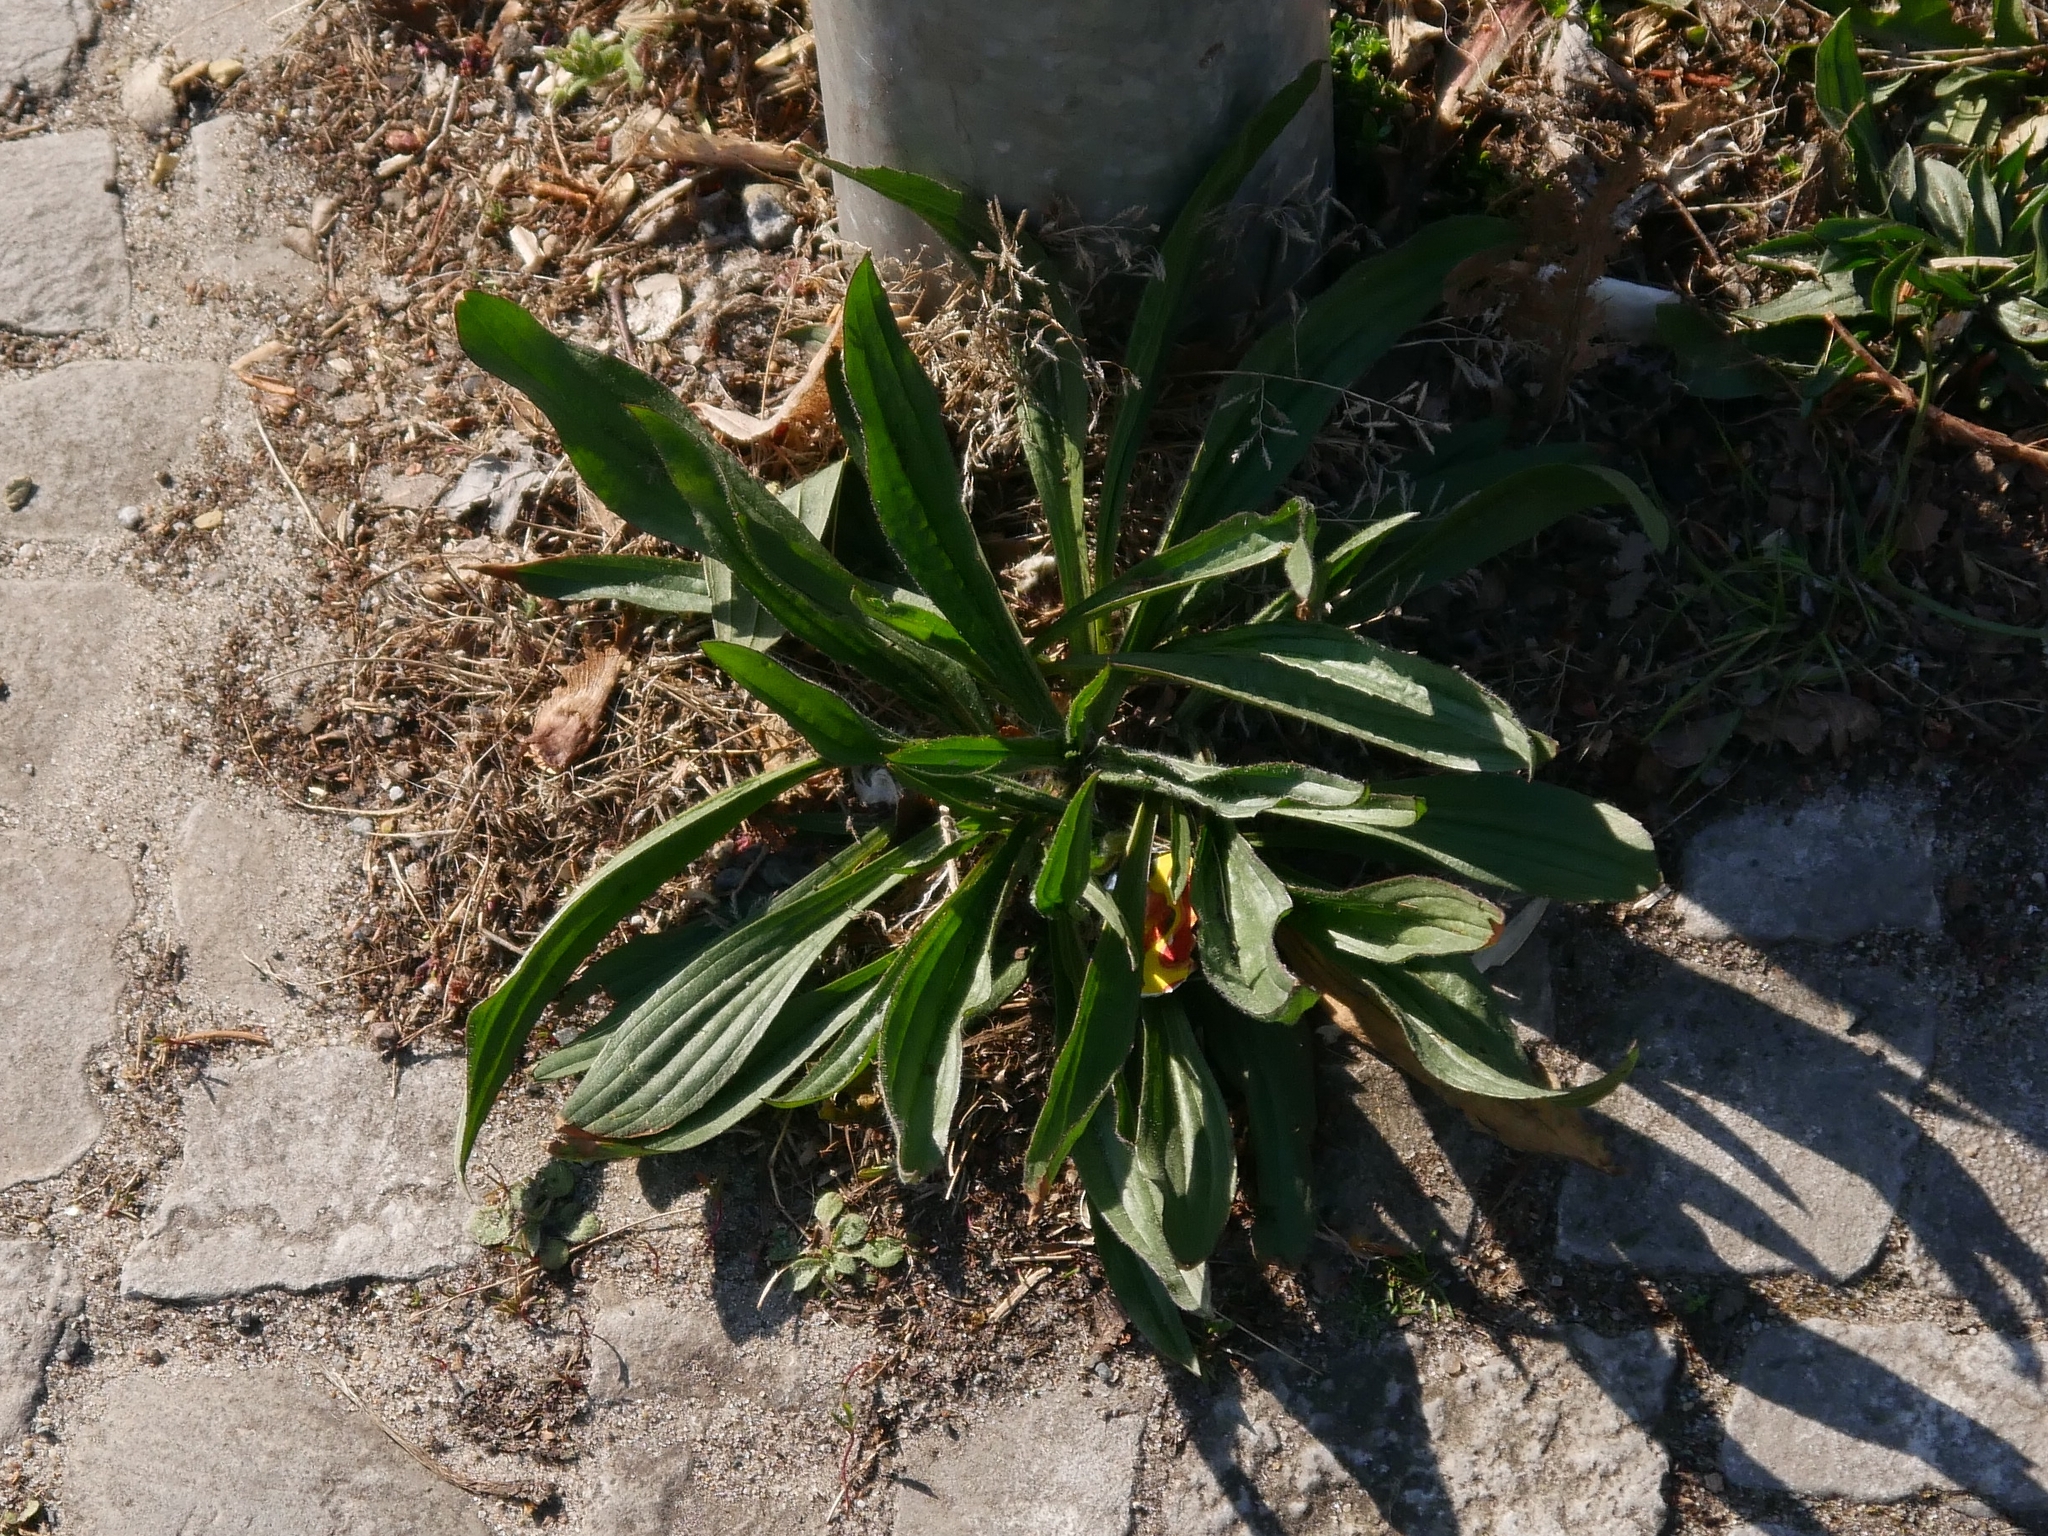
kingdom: Plantae
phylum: Tracheophyta
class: Magnoliopsida
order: Lamiales
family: Plantaginaceae
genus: Plantago
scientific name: Plantago lanceolata
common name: Ribwort plantain
